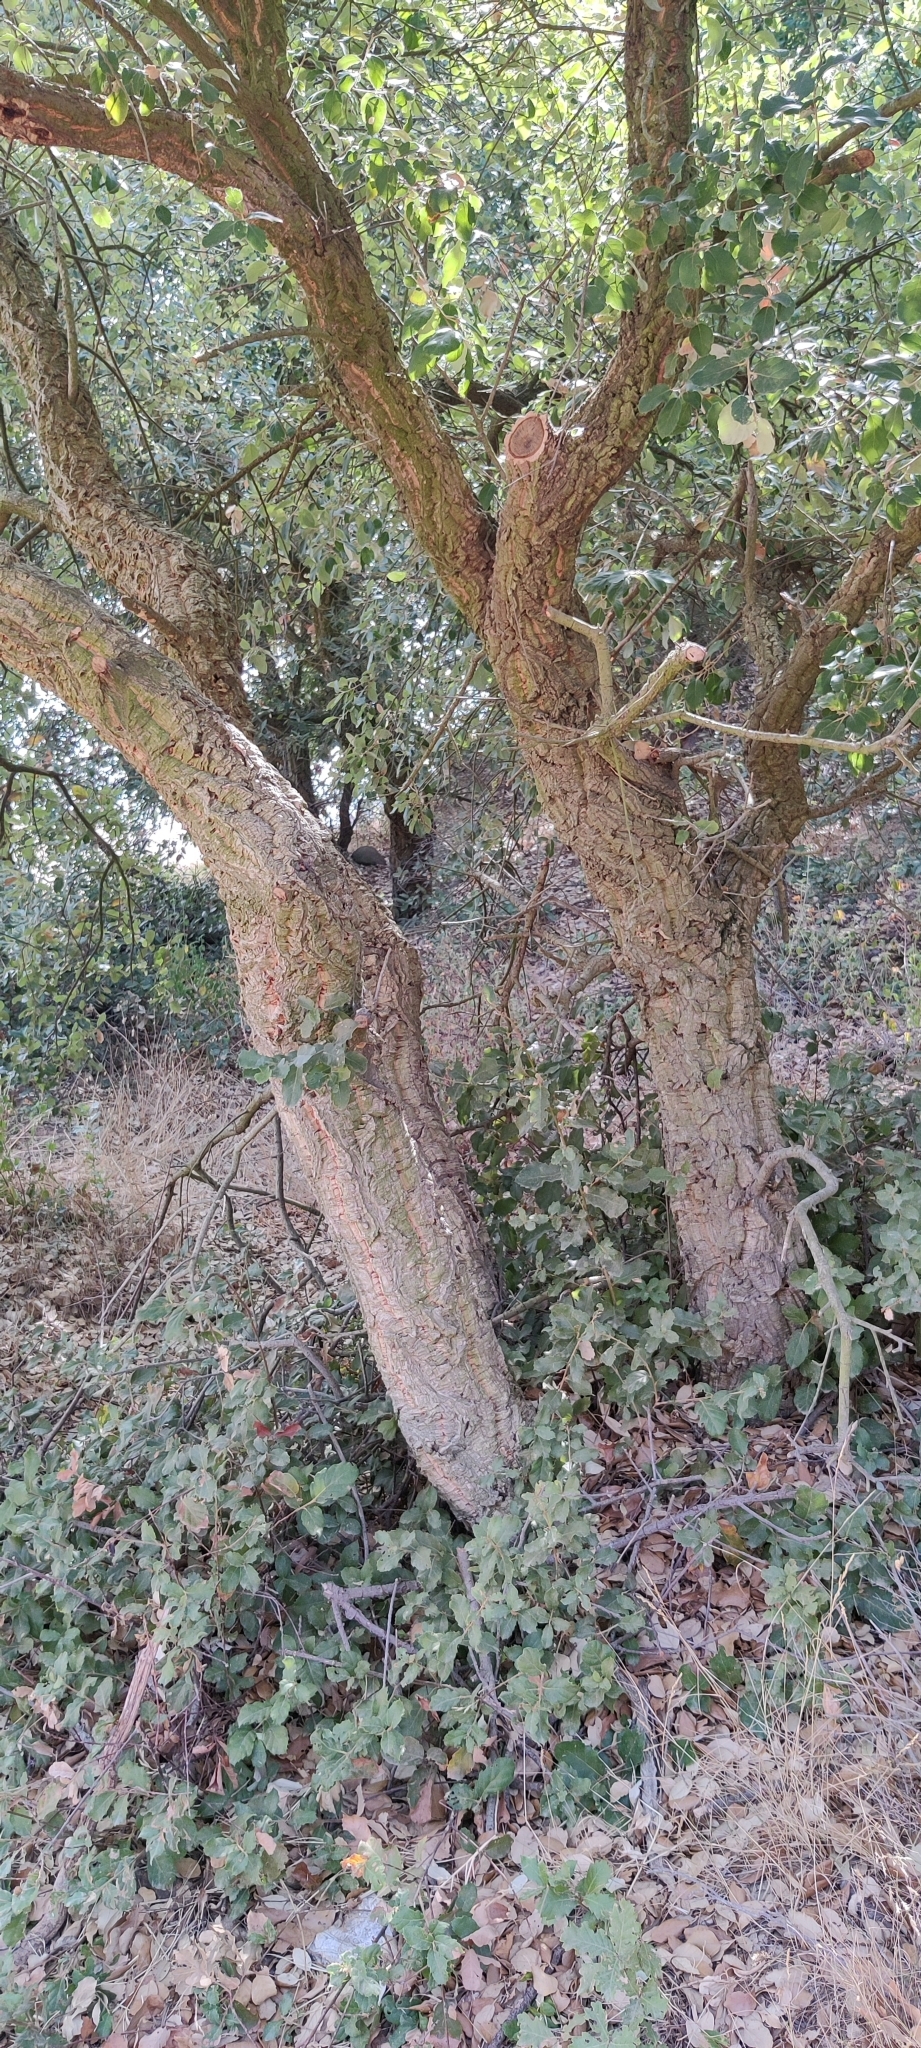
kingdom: Plantae
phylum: Tracheophyta
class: Magnoliopsida
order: Fagales
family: Fagaceae
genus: Quercus
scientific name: Quercus suber
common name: Cork oak
